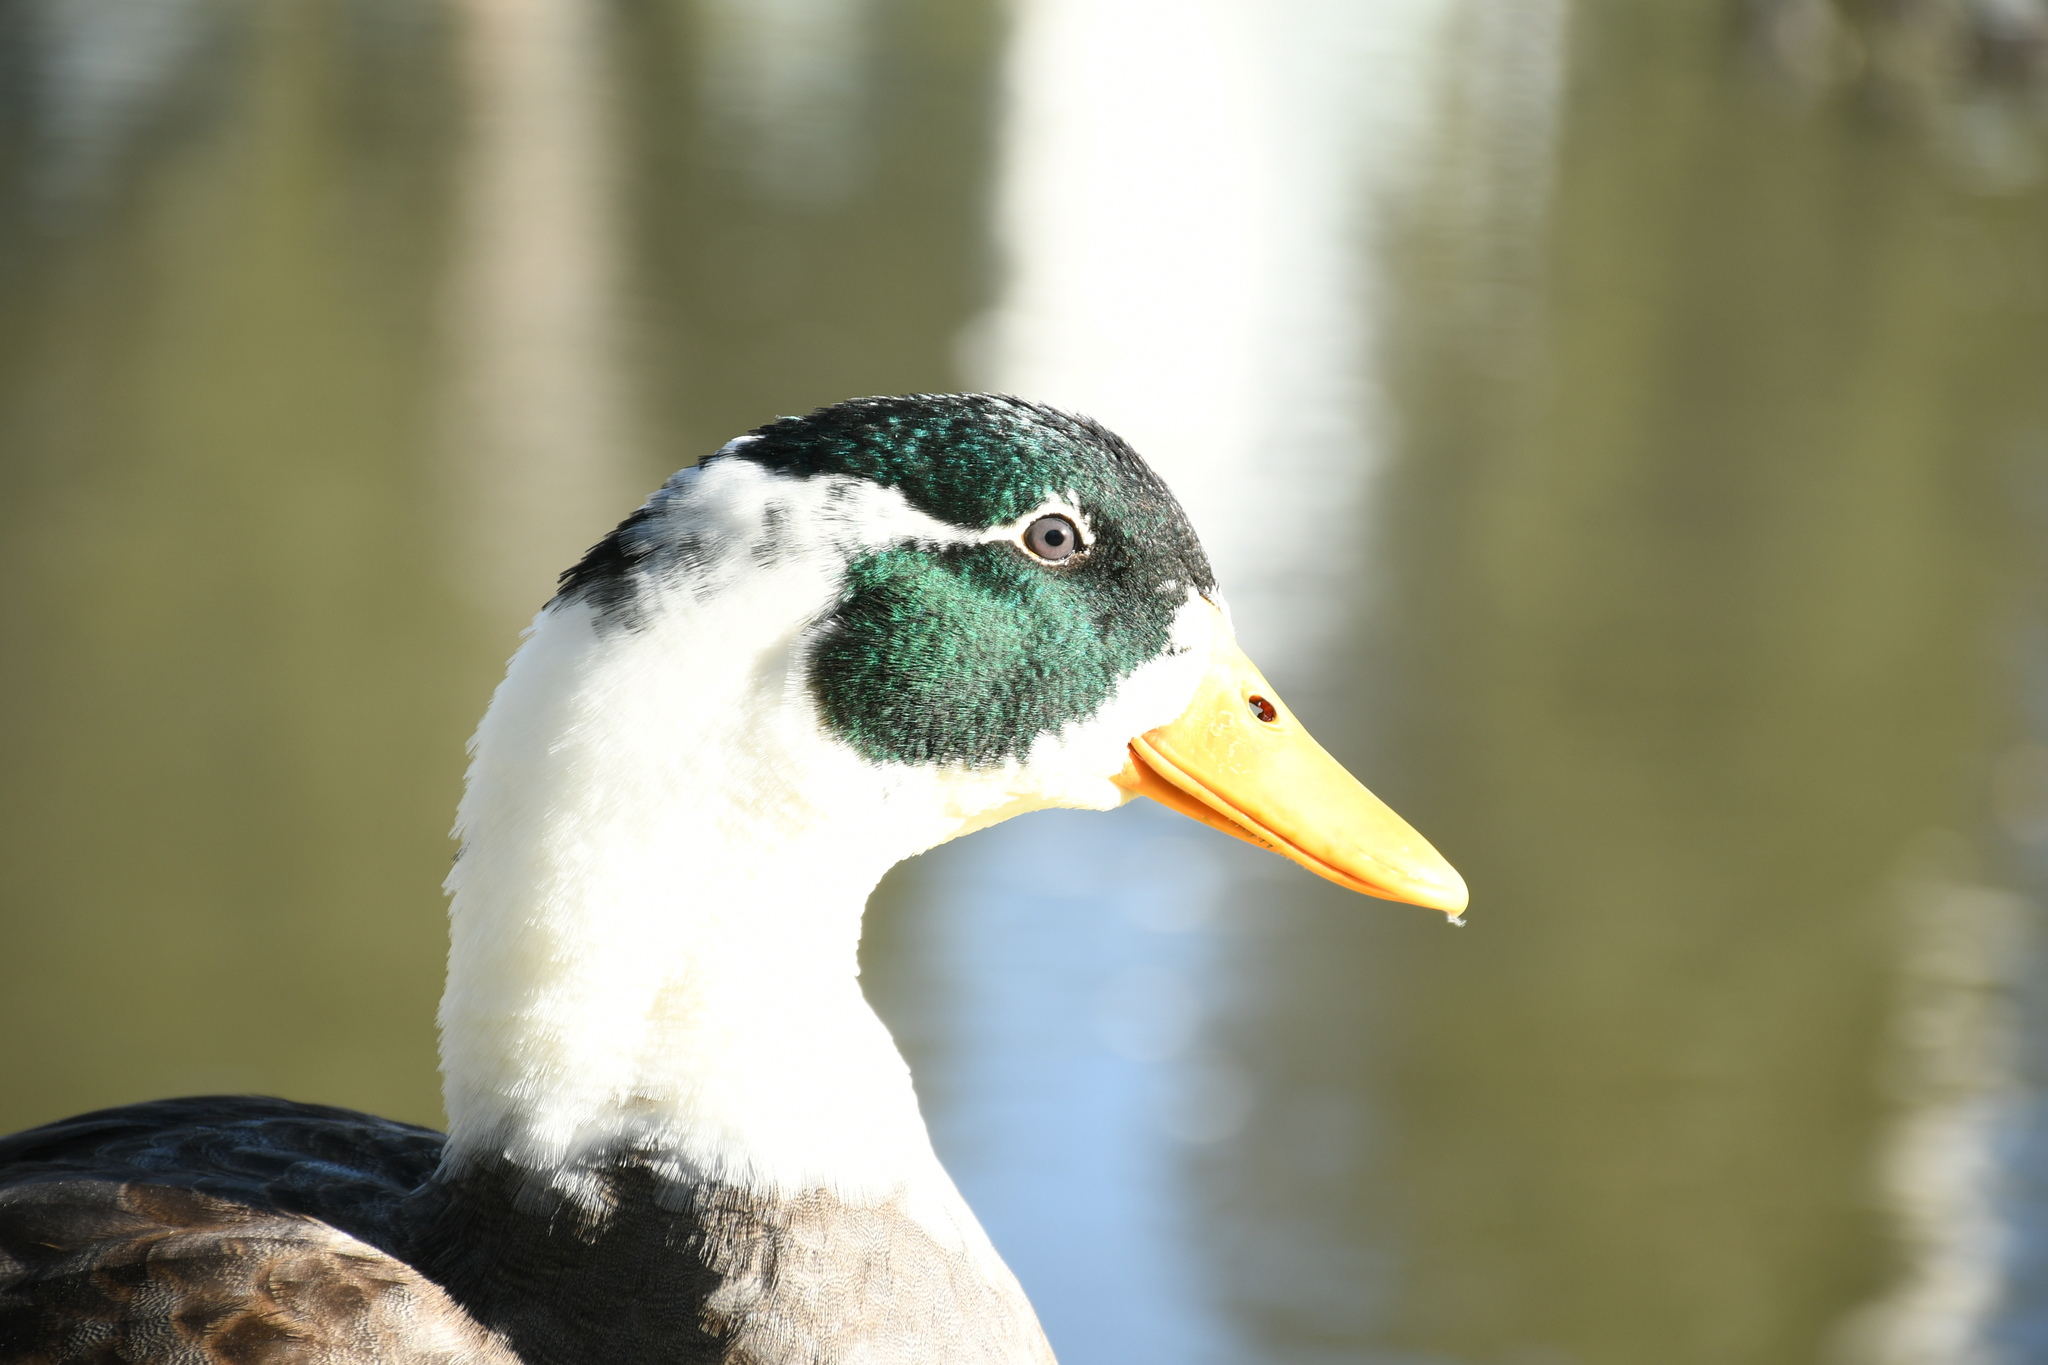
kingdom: Animalia
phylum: Chordata
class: Aves
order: Anseriformes
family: Anatidae
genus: Anas
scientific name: Anas platyrhynchos
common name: Mallard
